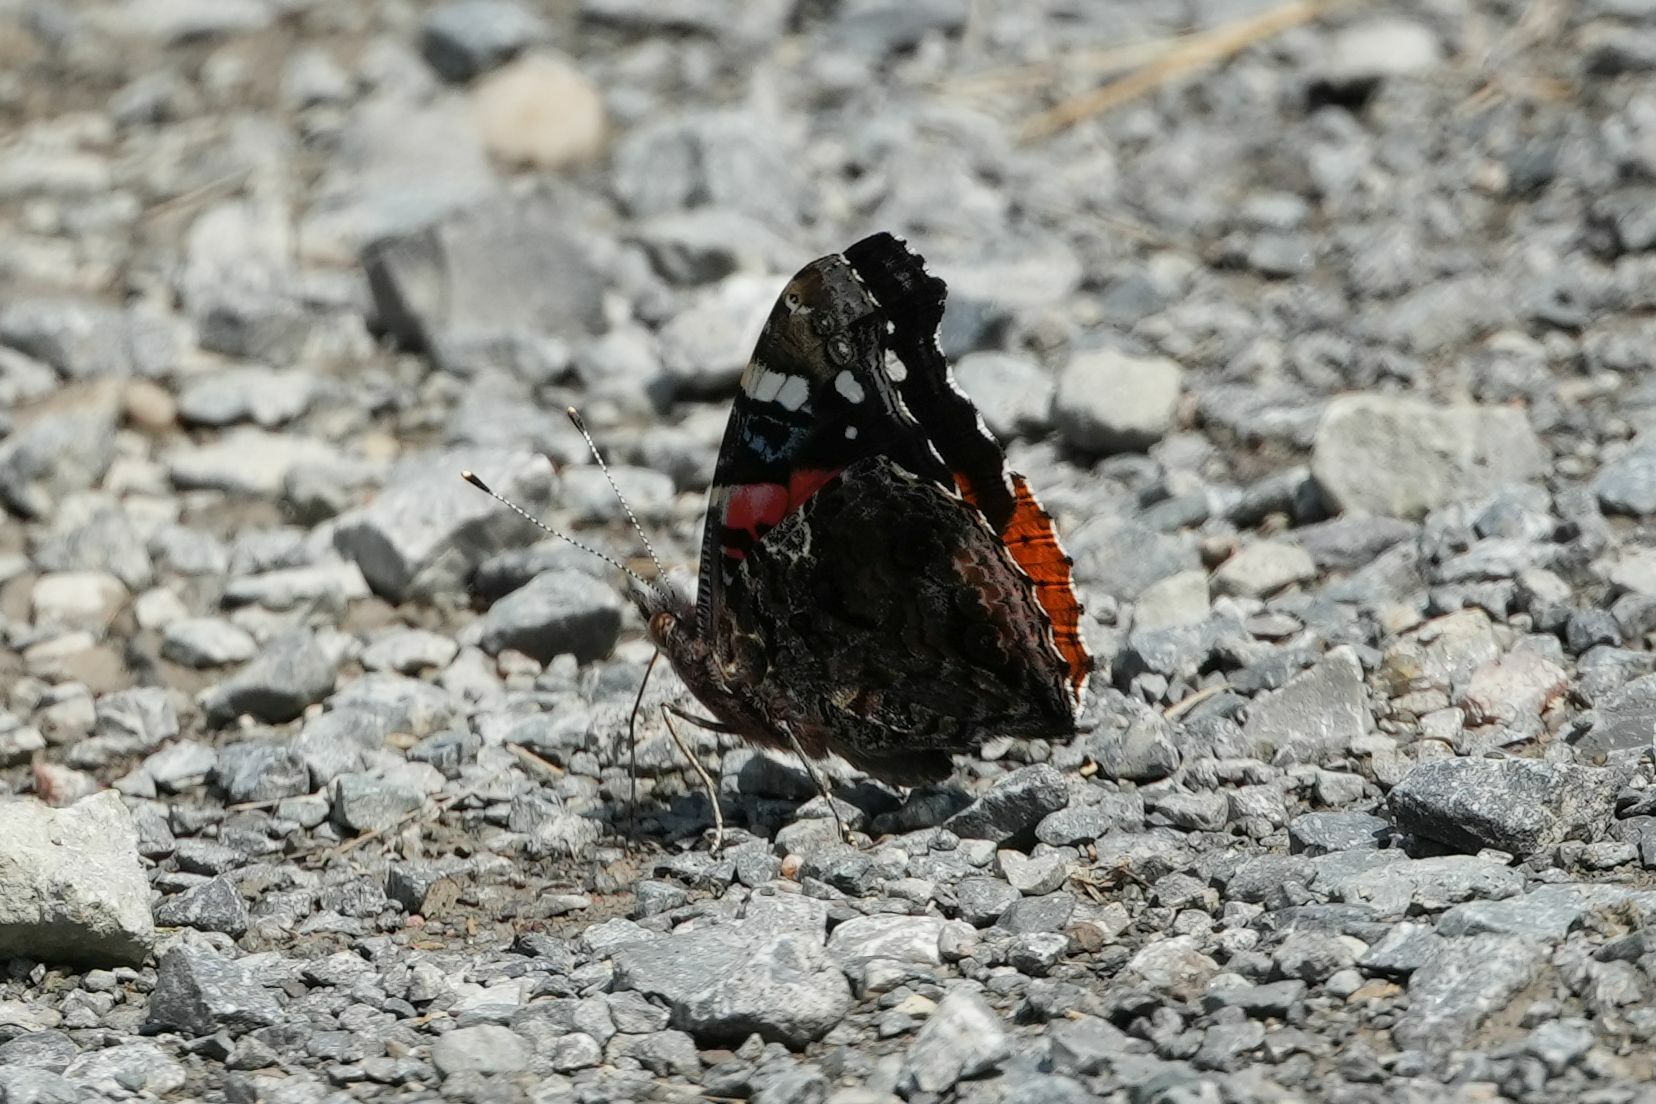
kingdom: Animalia
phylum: Arthropoda
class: Insecta
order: Lepidoptera
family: Nymphalidae
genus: Vanessa
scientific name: Vanessa atalanta
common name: Red admiral
